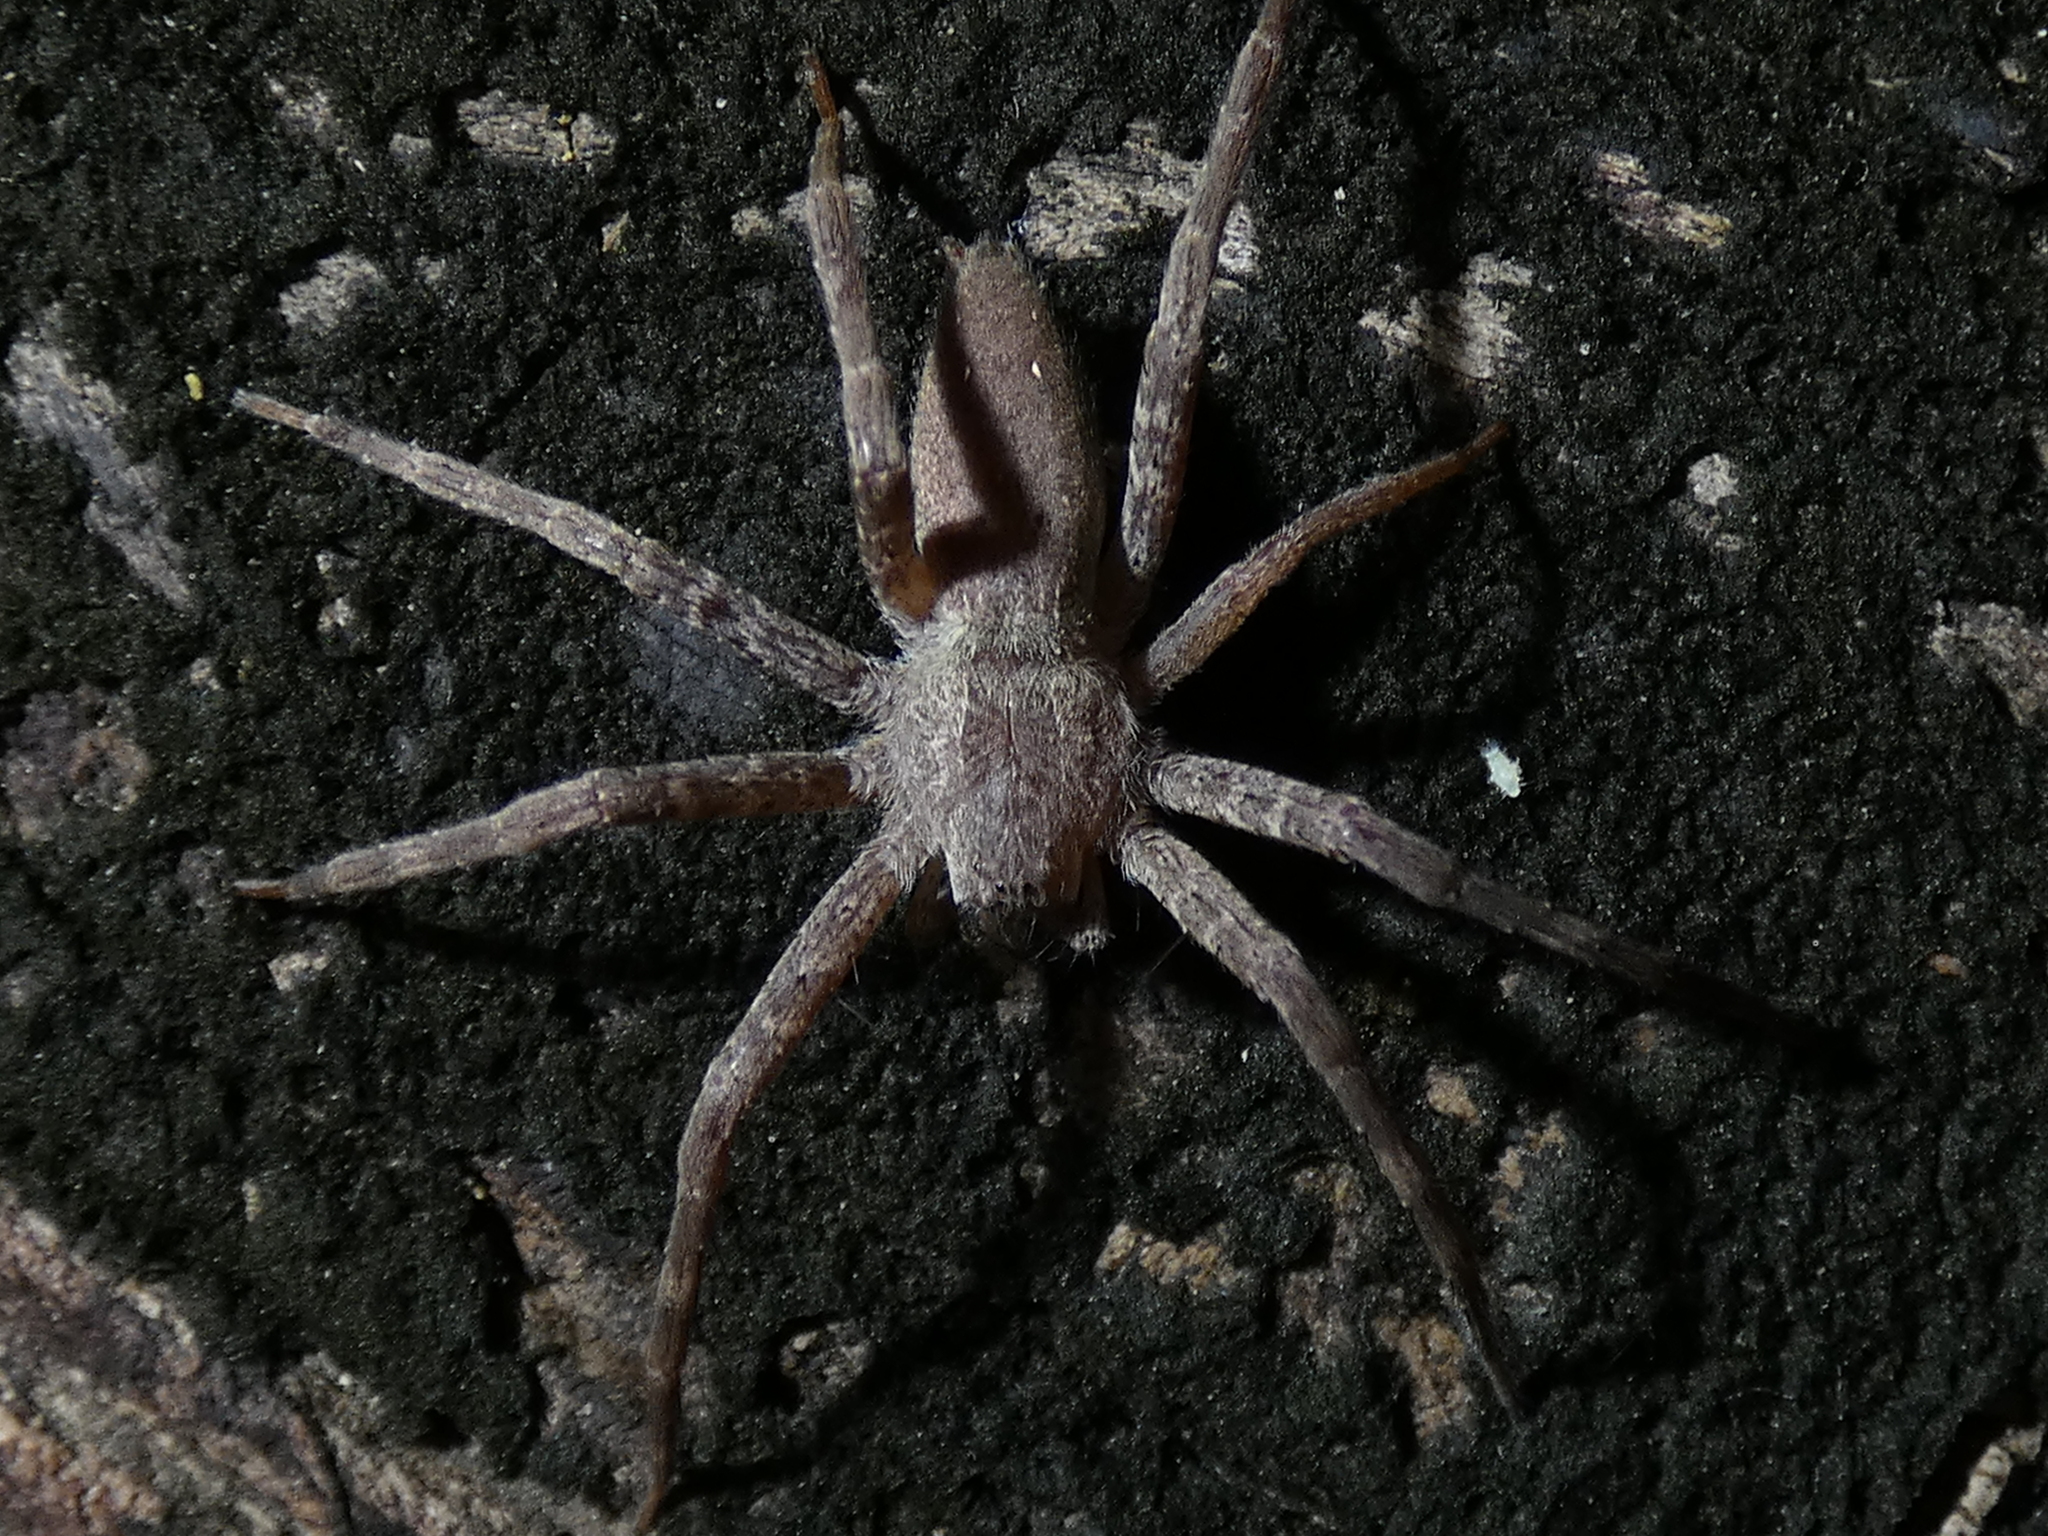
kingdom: Animalia
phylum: Arthropoda
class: Arachnida
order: Araneae
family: Pisauridae
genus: Pisaurina
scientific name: Pisaurina mira
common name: American nursery web spider
